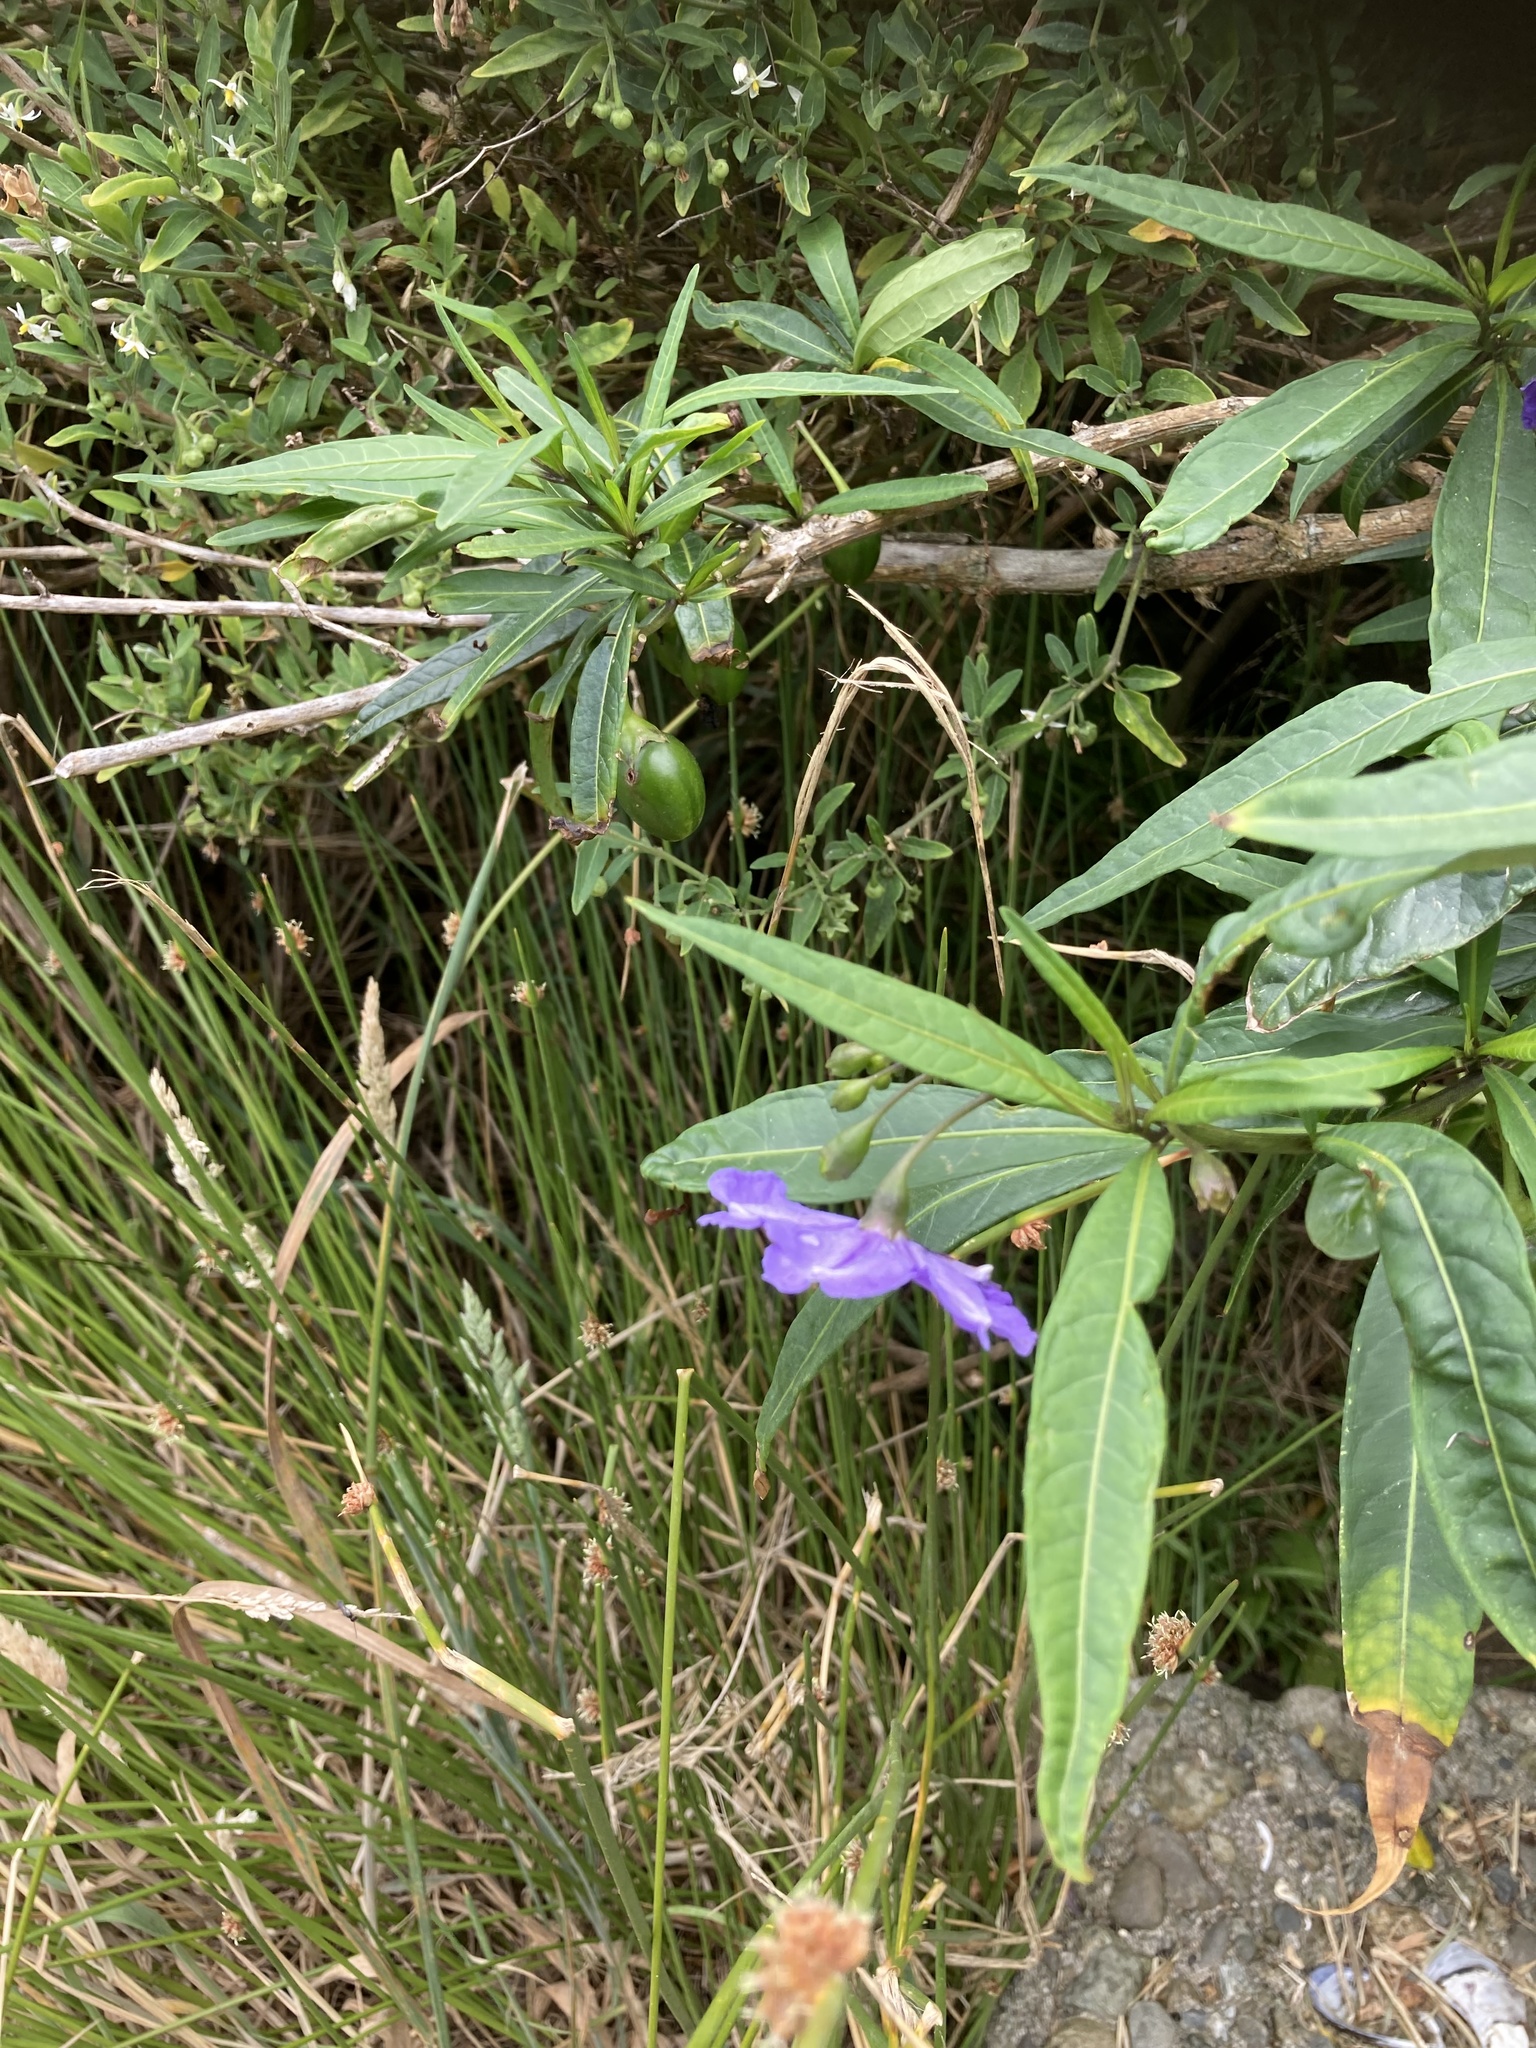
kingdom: Plantae
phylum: Tracheophyta
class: Magnoliopsida
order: Solanales
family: Solanaceae
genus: Solanum
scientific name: Solanum laciniatum
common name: Kangaroo-apple
